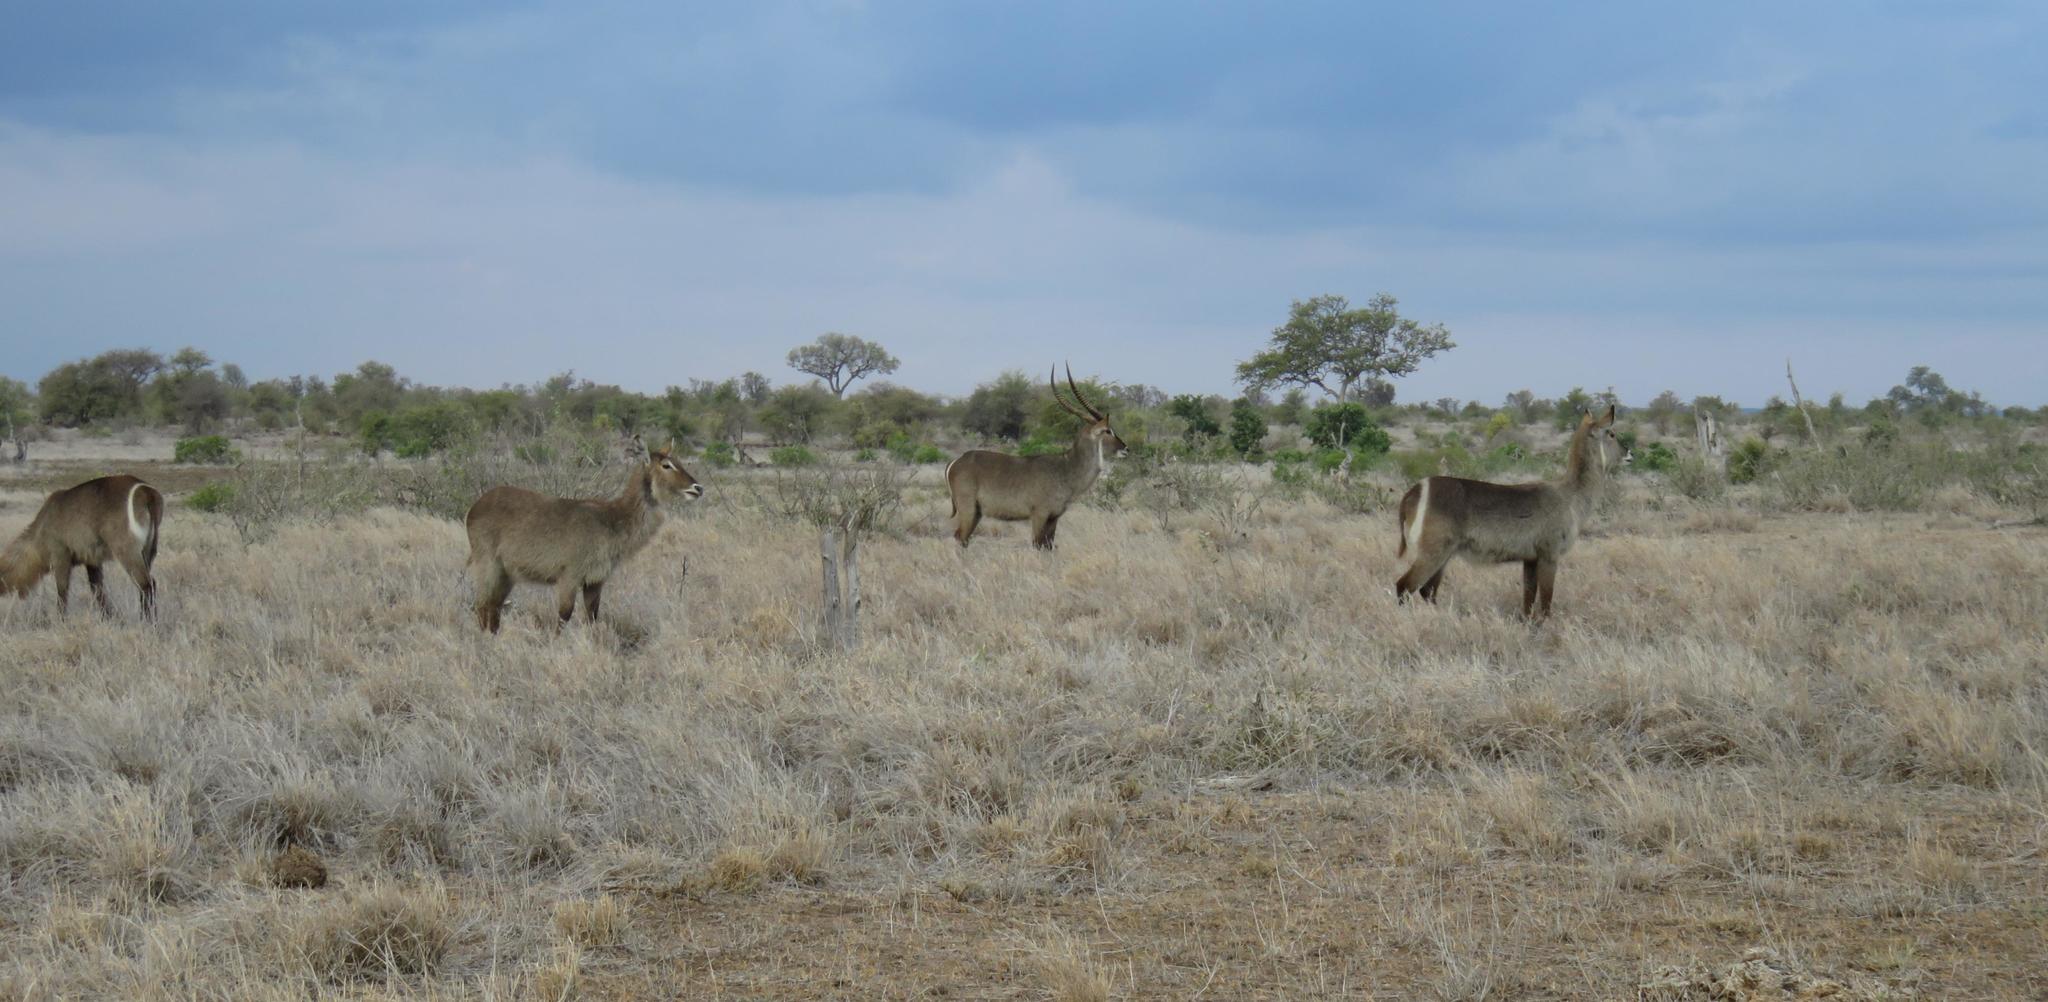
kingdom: Animalia
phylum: Chordata
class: Mammalia
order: Artiodactyla
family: Bovidae
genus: Kobus
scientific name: Kobus ellipsiprymnus
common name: Waterbuck
